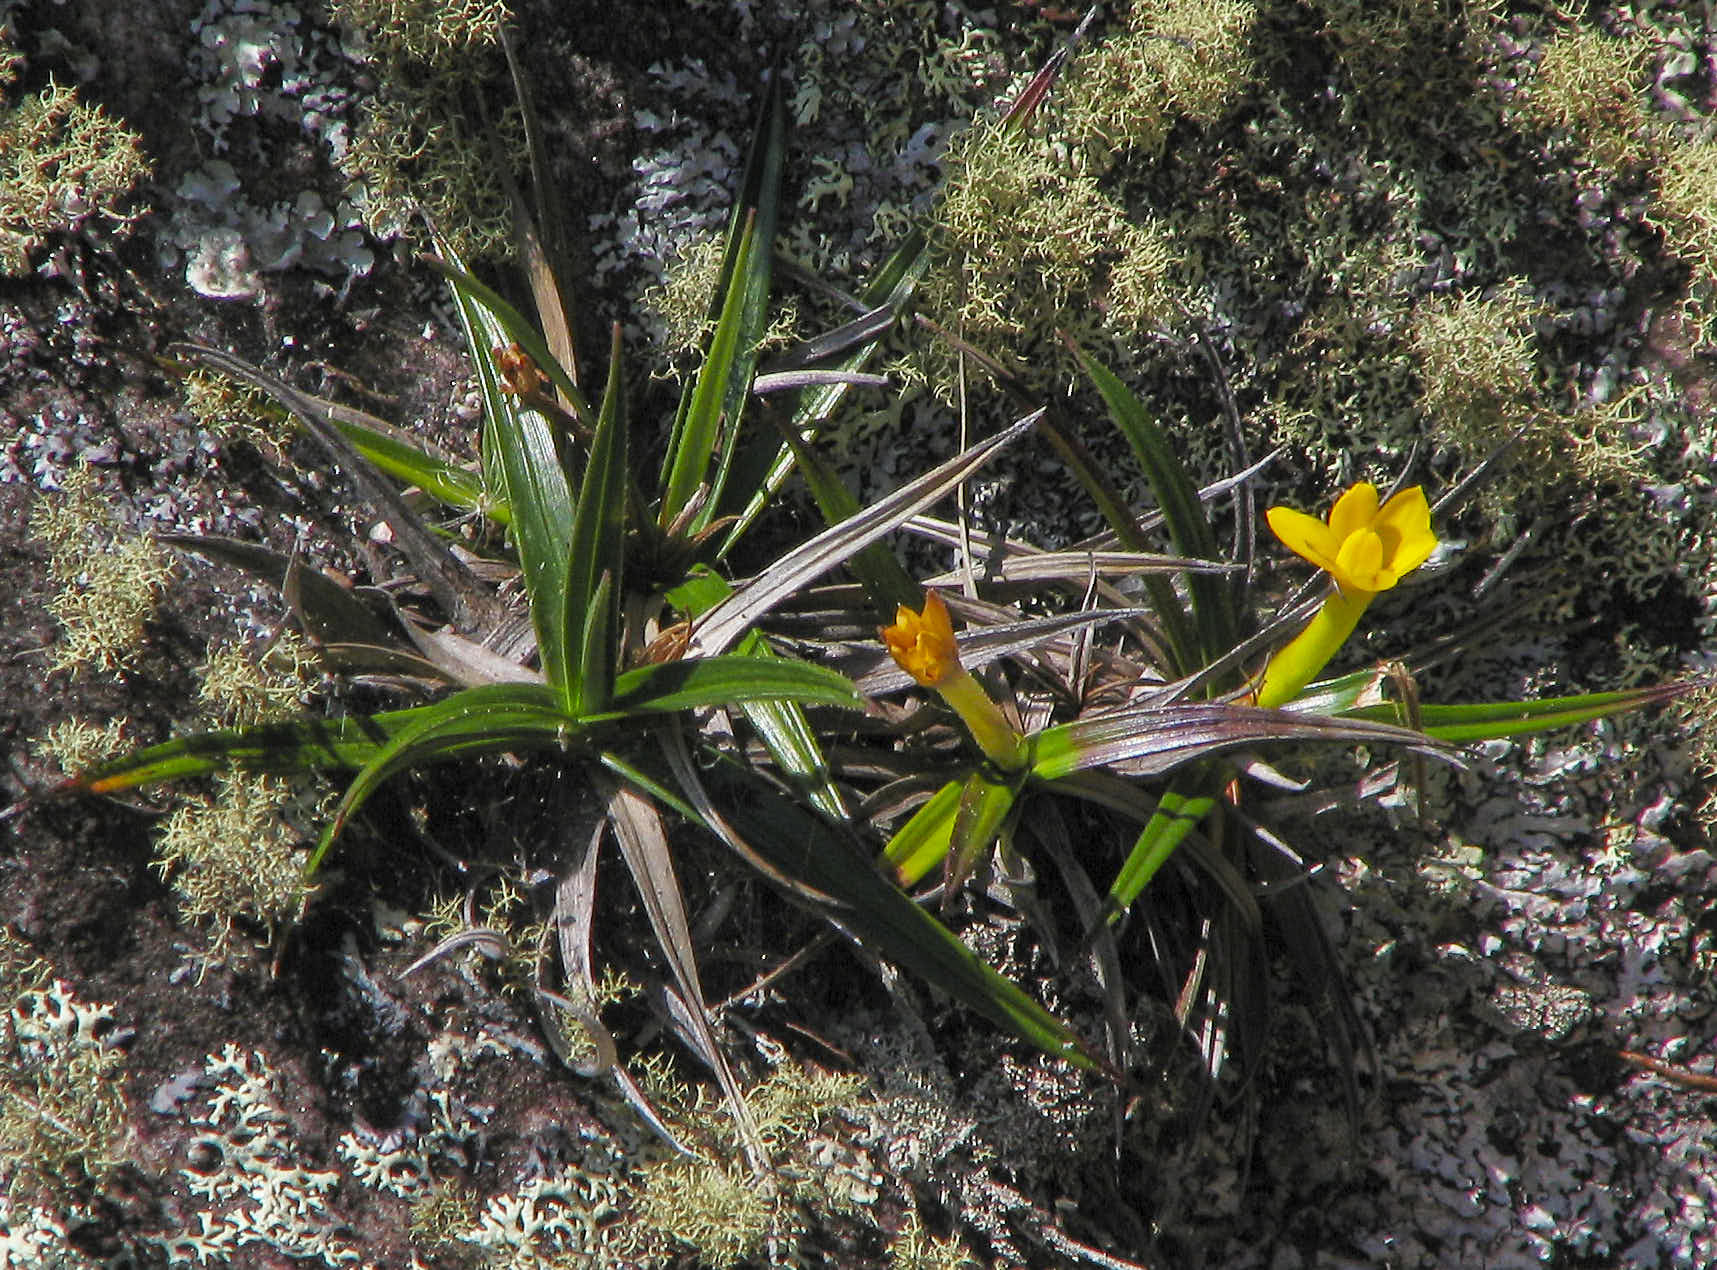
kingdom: Plantae
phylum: Tracheophyta
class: Liliopsida
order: Pandanales
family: Velloziaceae
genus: Barbacenia
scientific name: Barbacenia rectifolia
